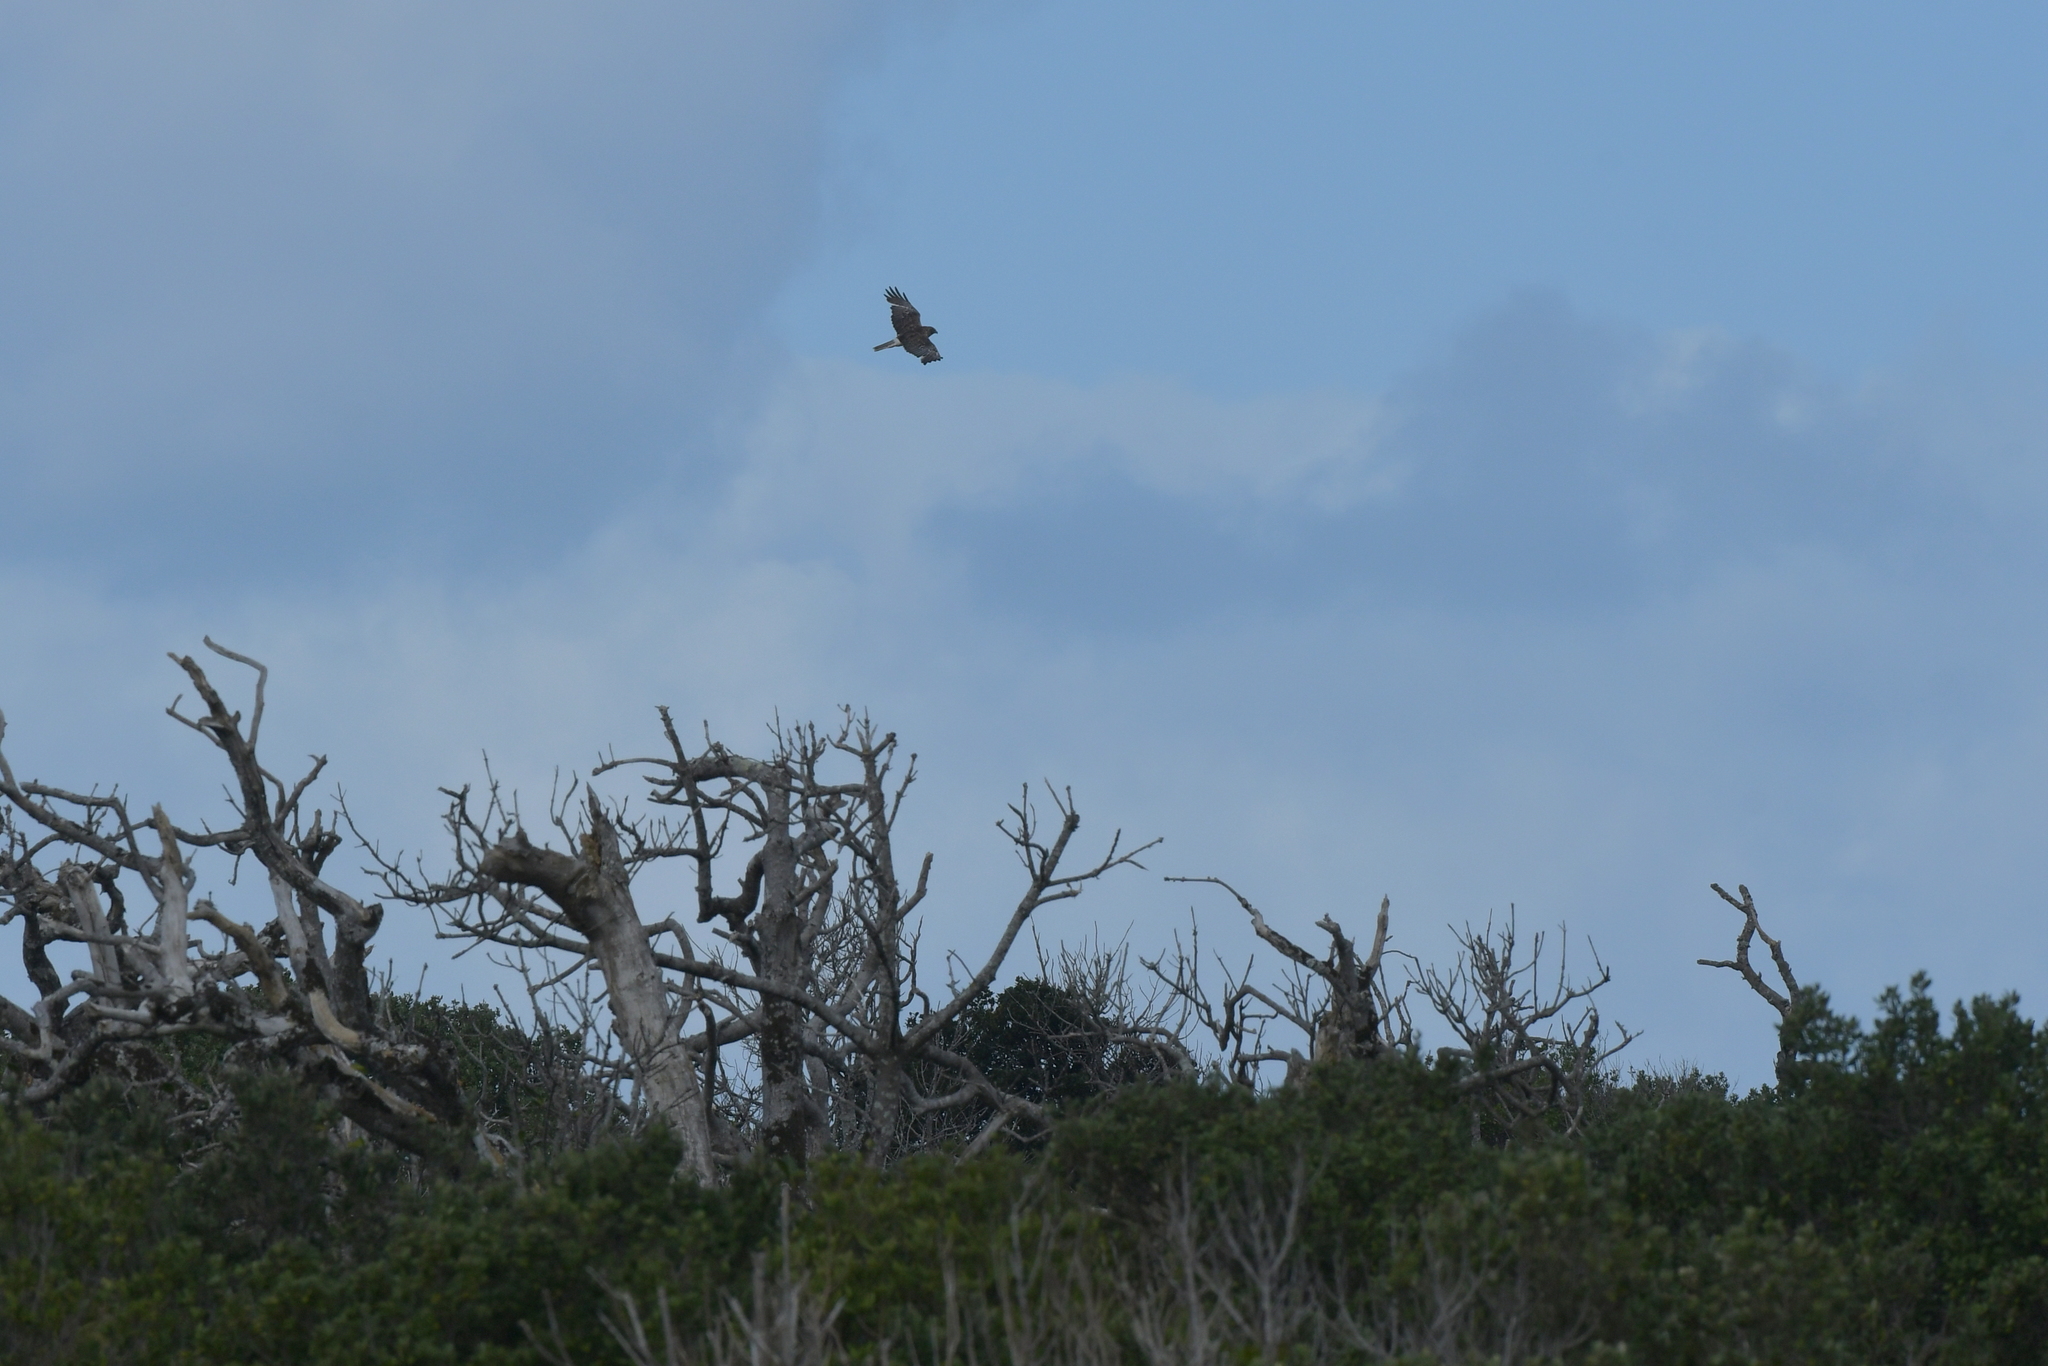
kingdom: Animalia
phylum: Chordata
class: Aves
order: Accipitriformes
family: Accipitridae
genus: Circus
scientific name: Circus approximans
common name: Swamp harrier
